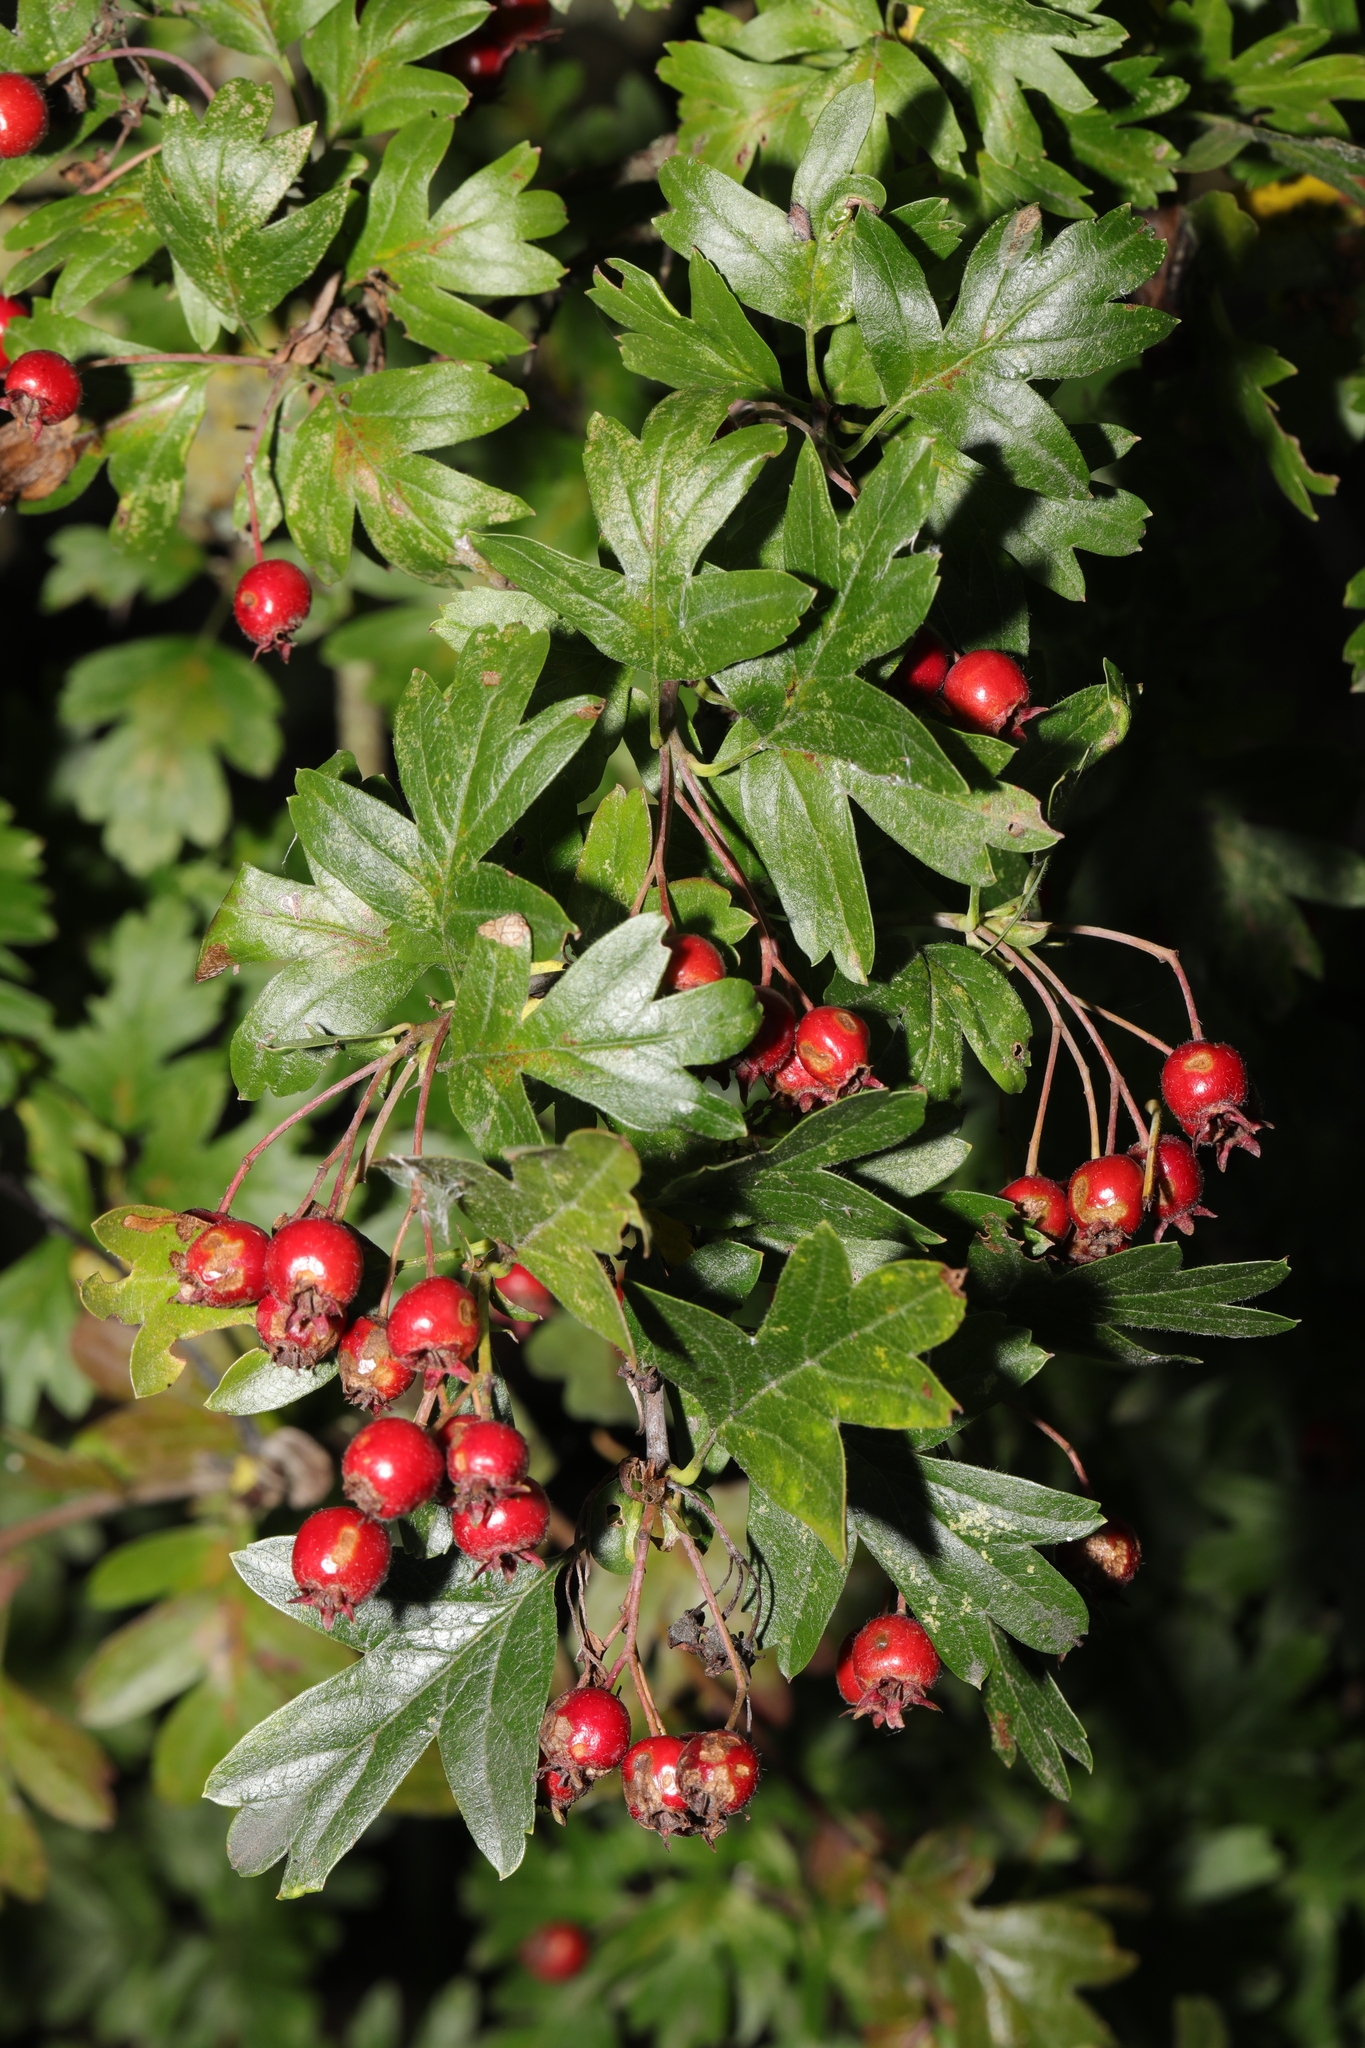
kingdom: Plantae
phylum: Tracheophyta
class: Magnoliopsida
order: Rosales
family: Rosaceae
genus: Crataegus
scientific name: Crataegus monogyna
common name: Hawthorn
